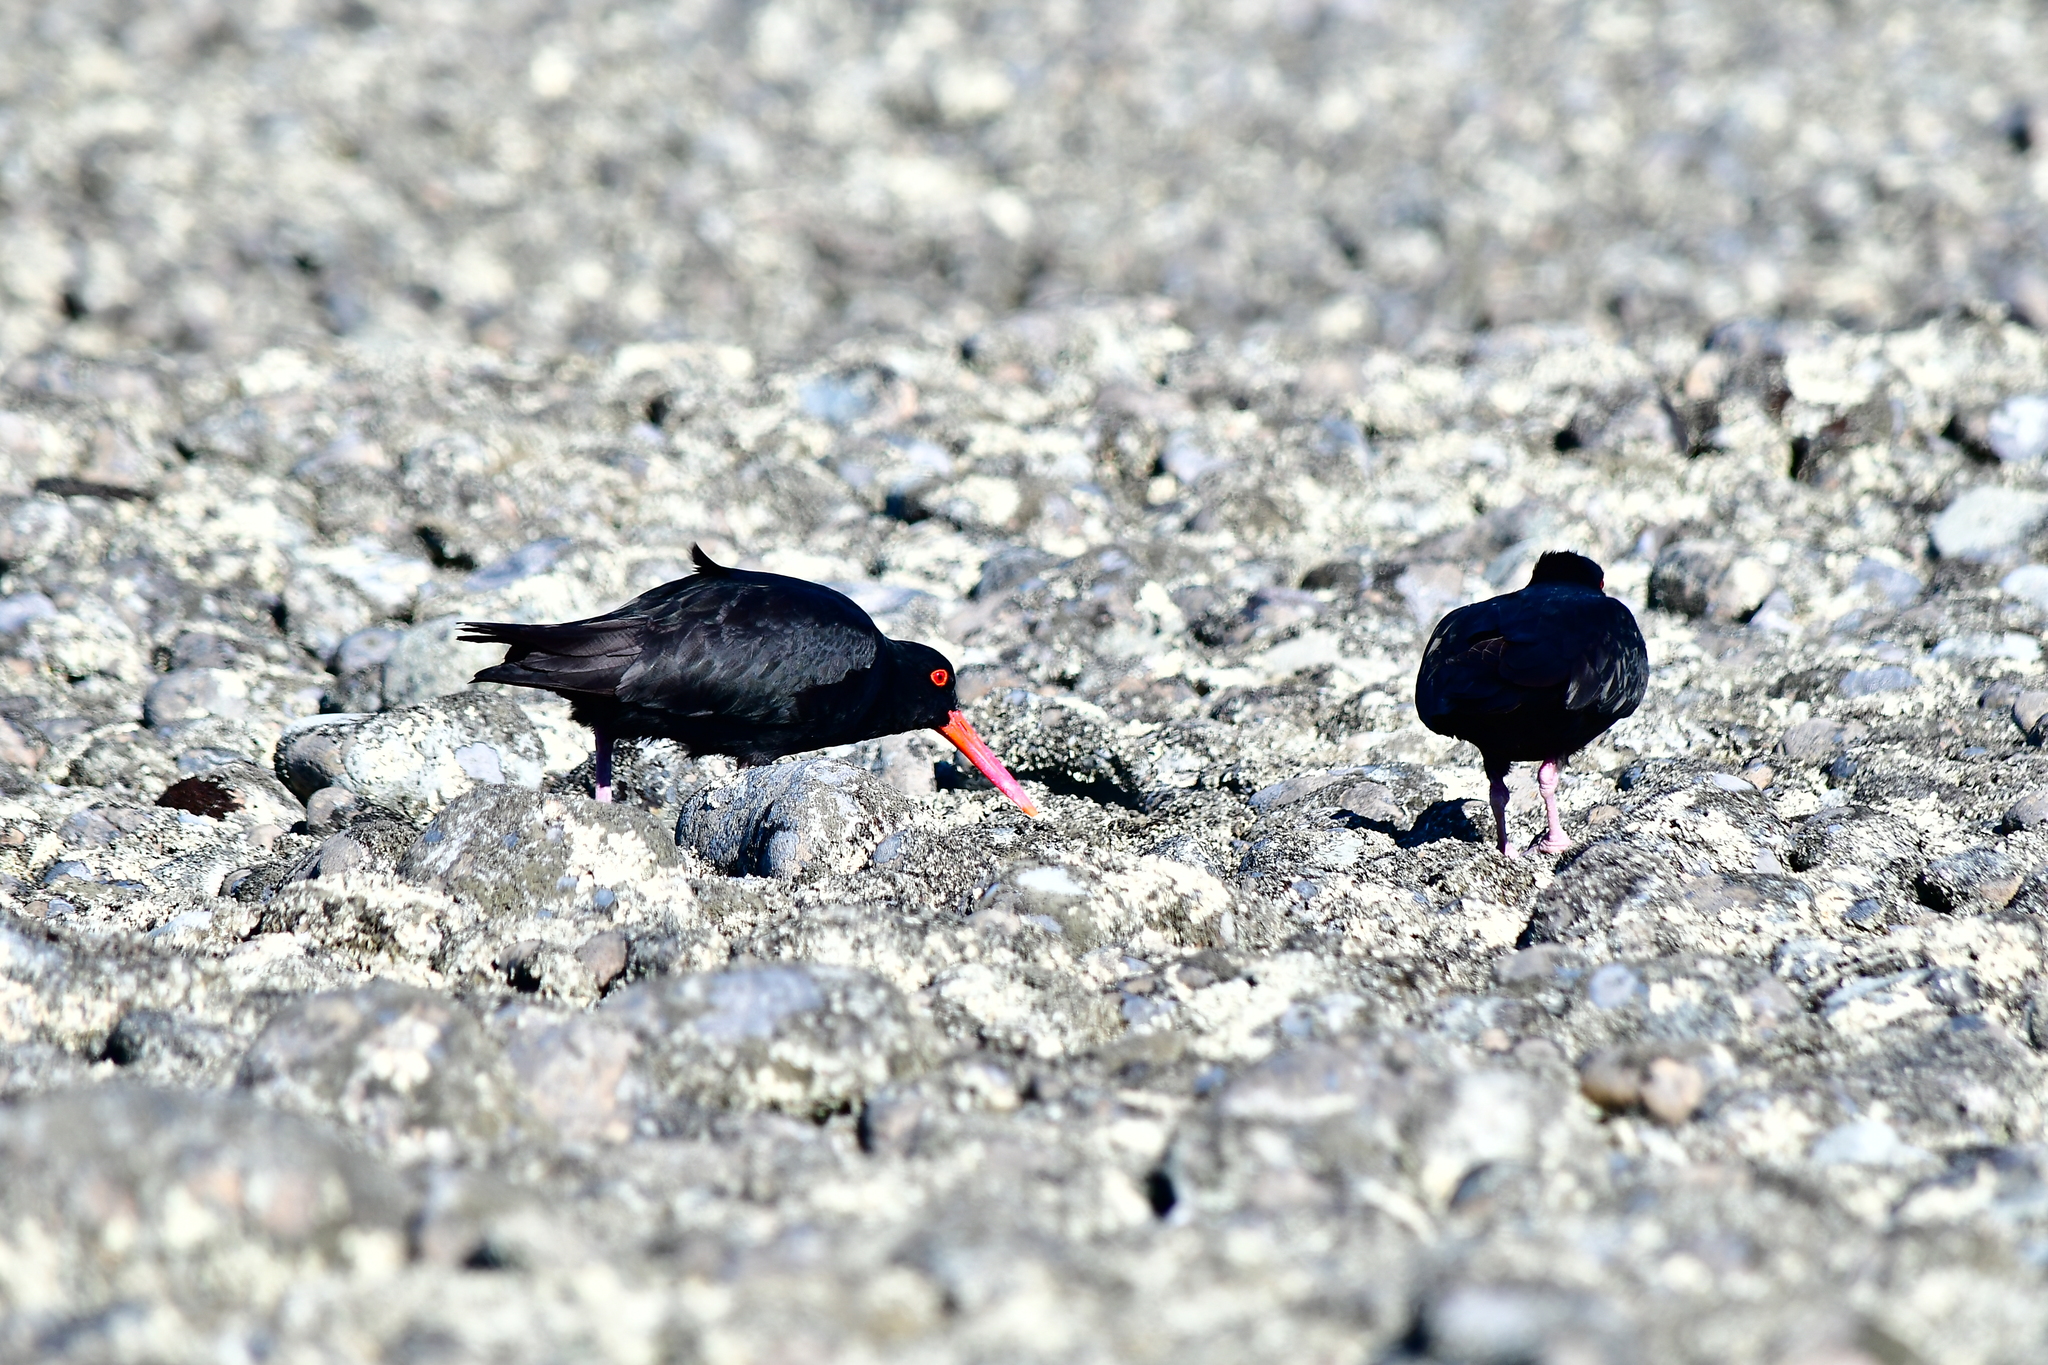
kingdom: Animalia
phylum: Chordata
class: Aves
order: Charadriiformes
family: Haematopodidae
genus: Haematopus
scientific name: Haematopus unicolor
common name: Variable oystercatcher
